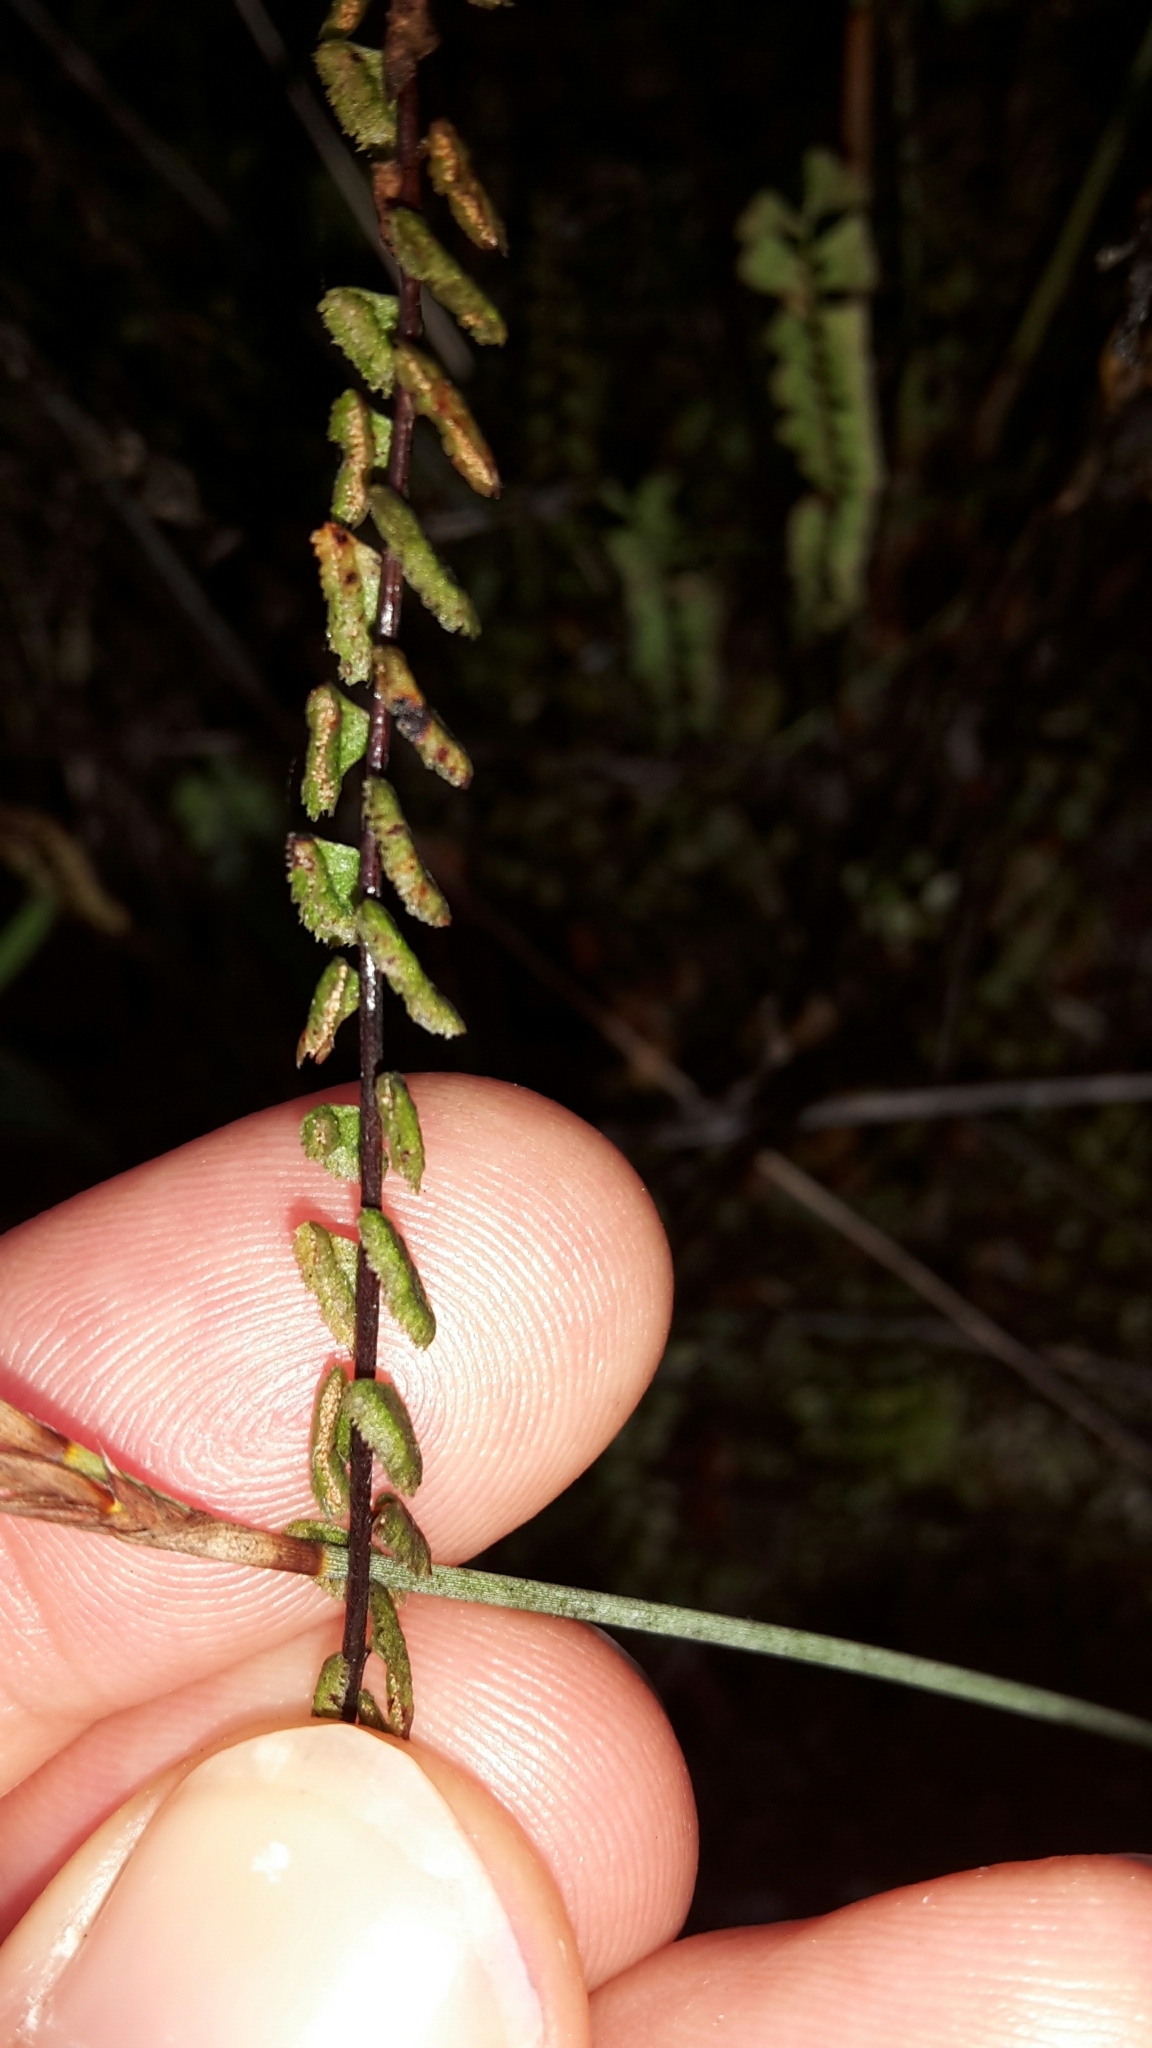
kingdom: Plantae
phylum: Tracheophyta
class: Polypodiopsida
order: Polypodiales
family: Lindsaeaceae
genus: Lindsaea
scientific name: Lindsaea linearis
